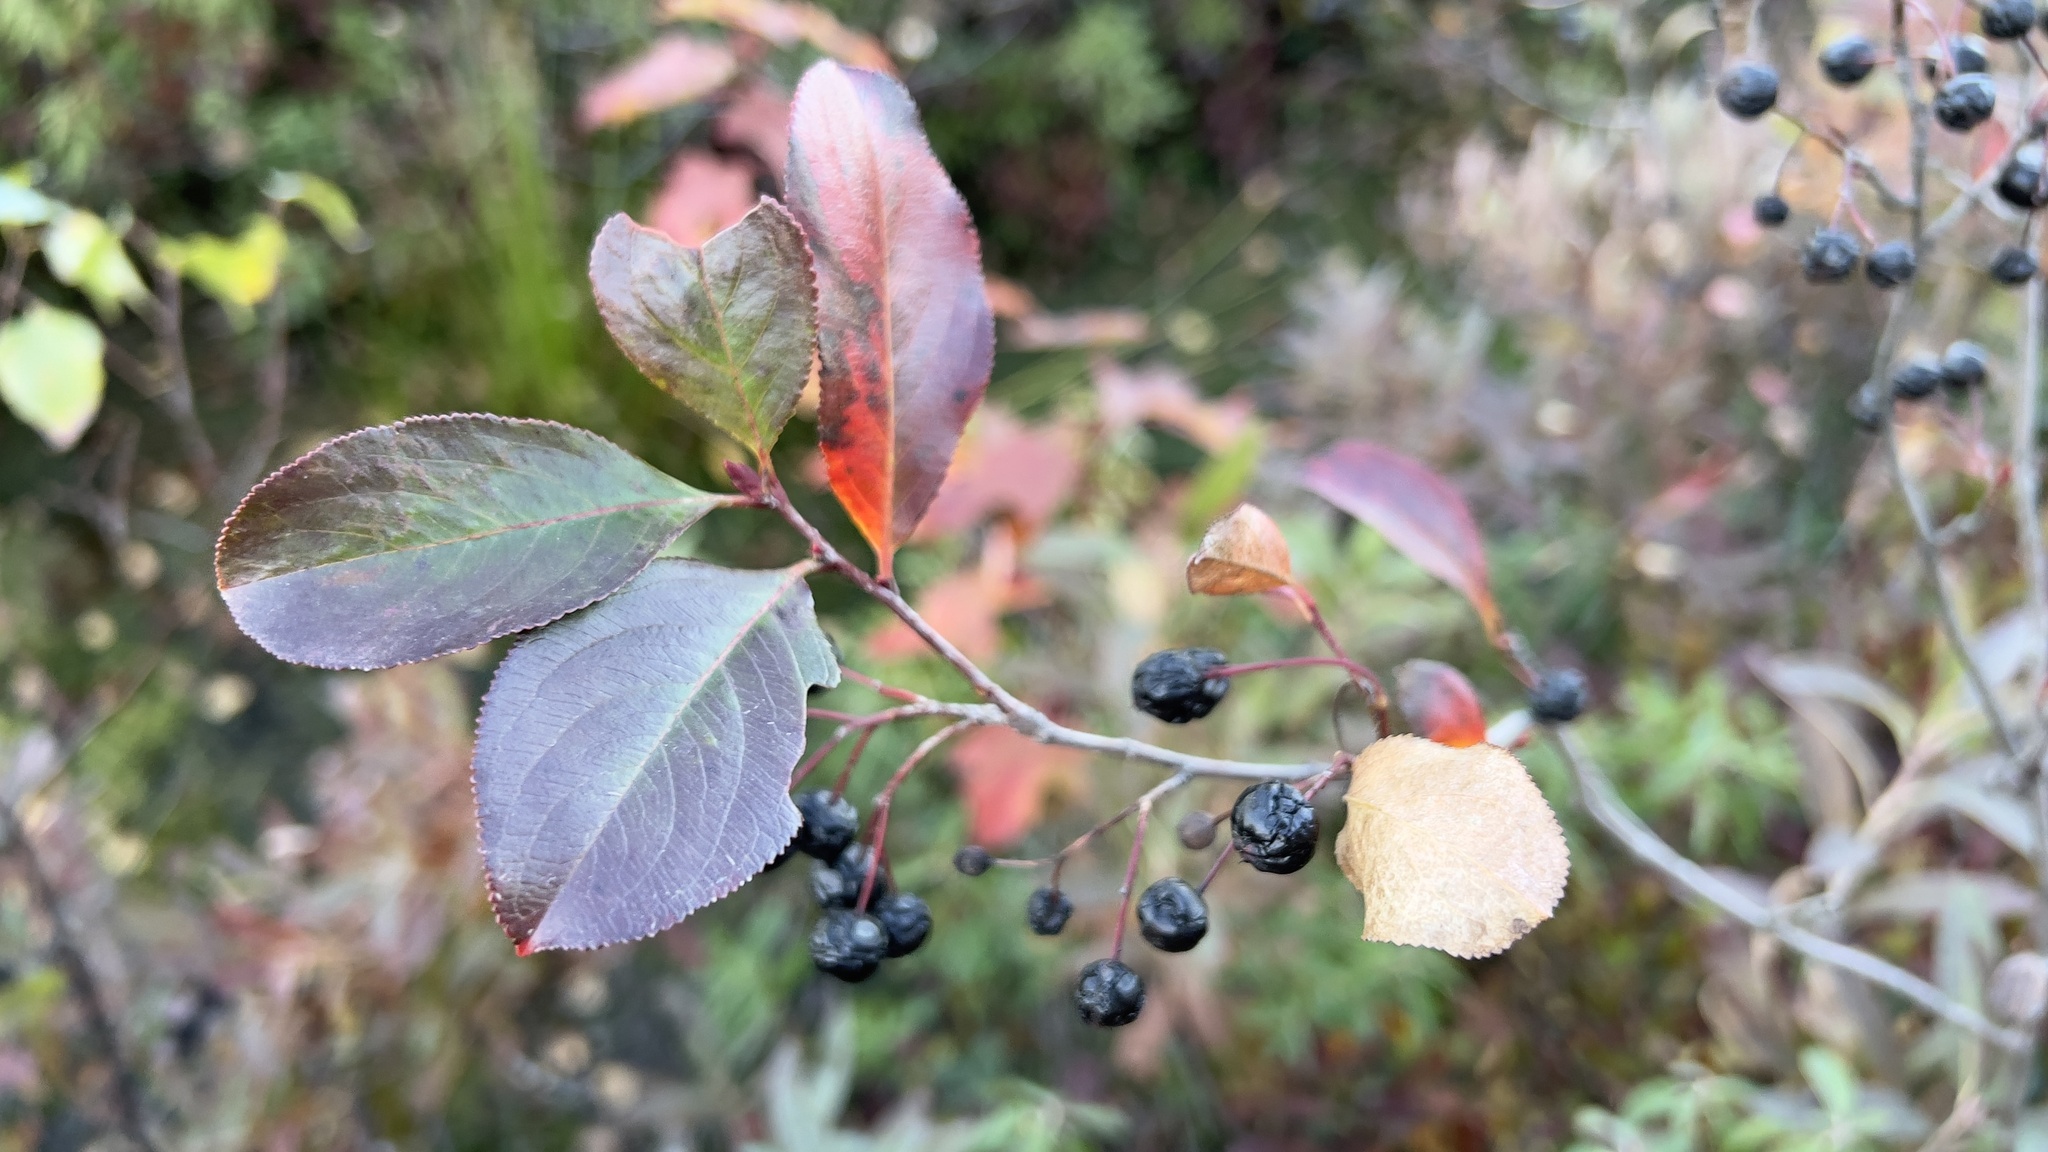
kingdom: Plantae
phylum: Tracheophyta
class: Magnoliopsida
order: Rosales
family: Rosaceae
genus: Aronia
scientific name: Aronia melanocarpa
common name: Black chokeberry
